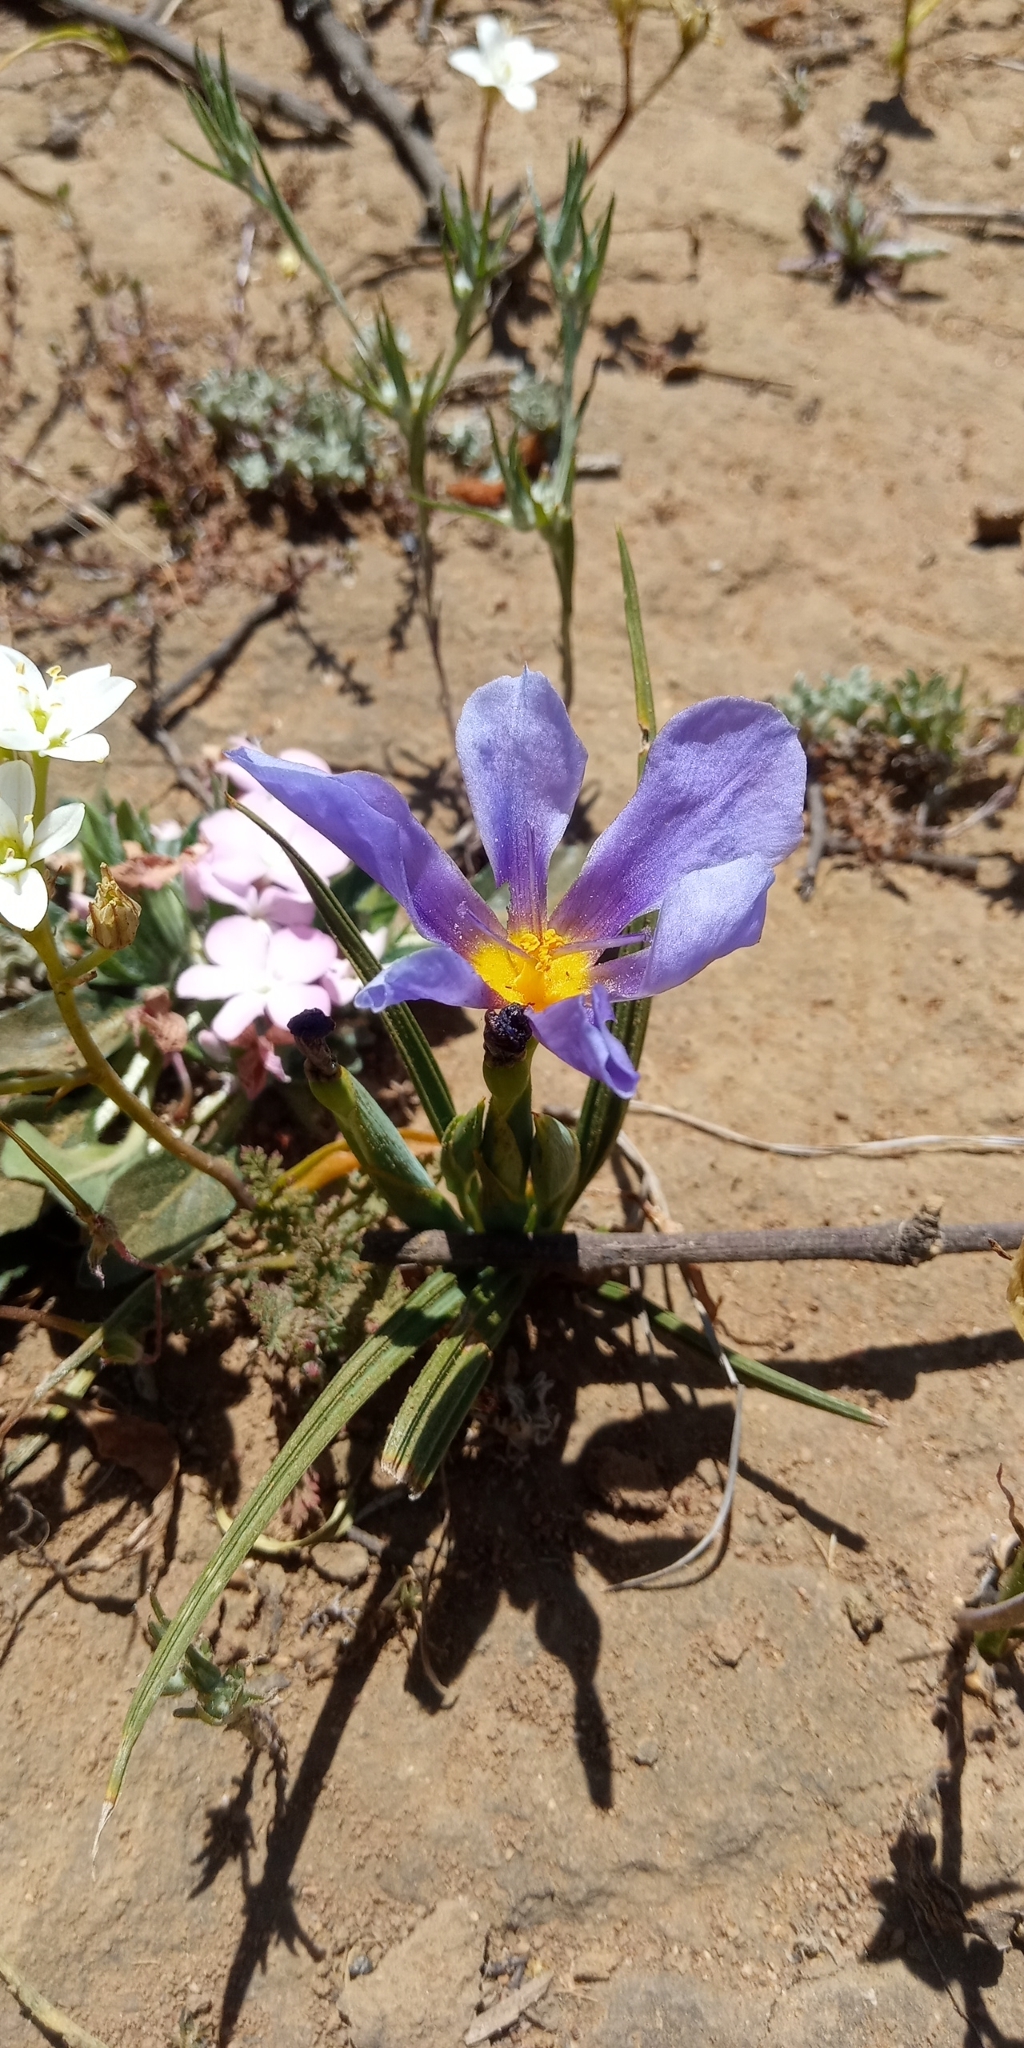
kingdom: Plantae
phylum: Tracheophyta
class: Liliopsida
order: Asparagales
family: Iridaceae
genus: Calydorea
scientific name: Calydorea xiphioides
